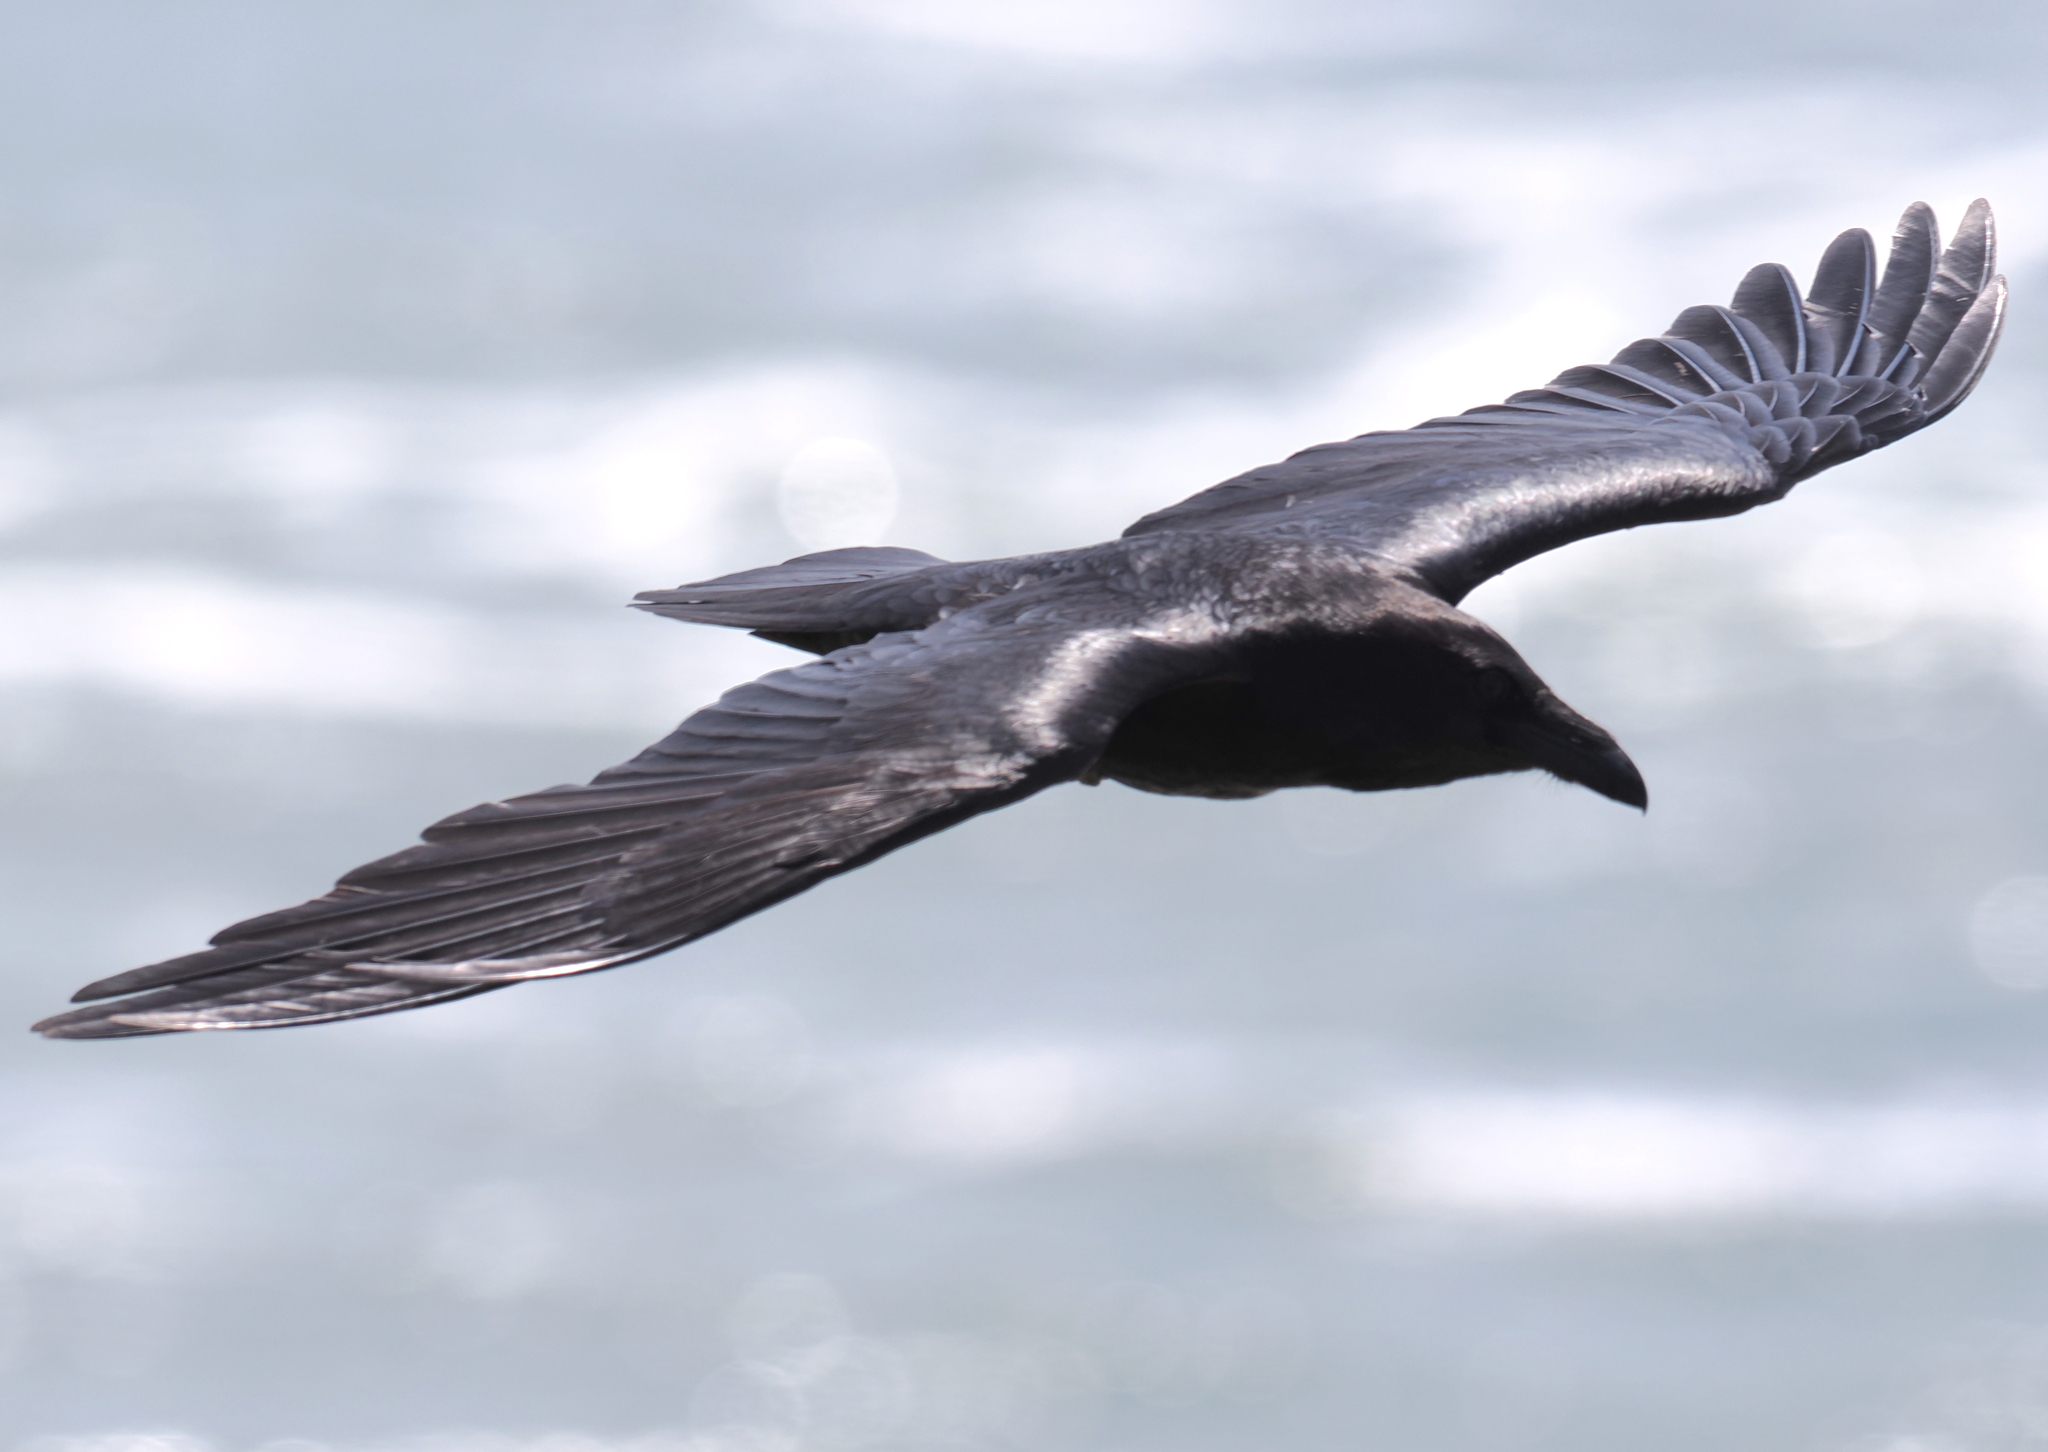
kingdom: Animalia
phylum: Chordata
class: Aves
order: Passeriformes
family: Corvidae
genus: Corvus
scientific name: Corvus corax
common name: Common raven
